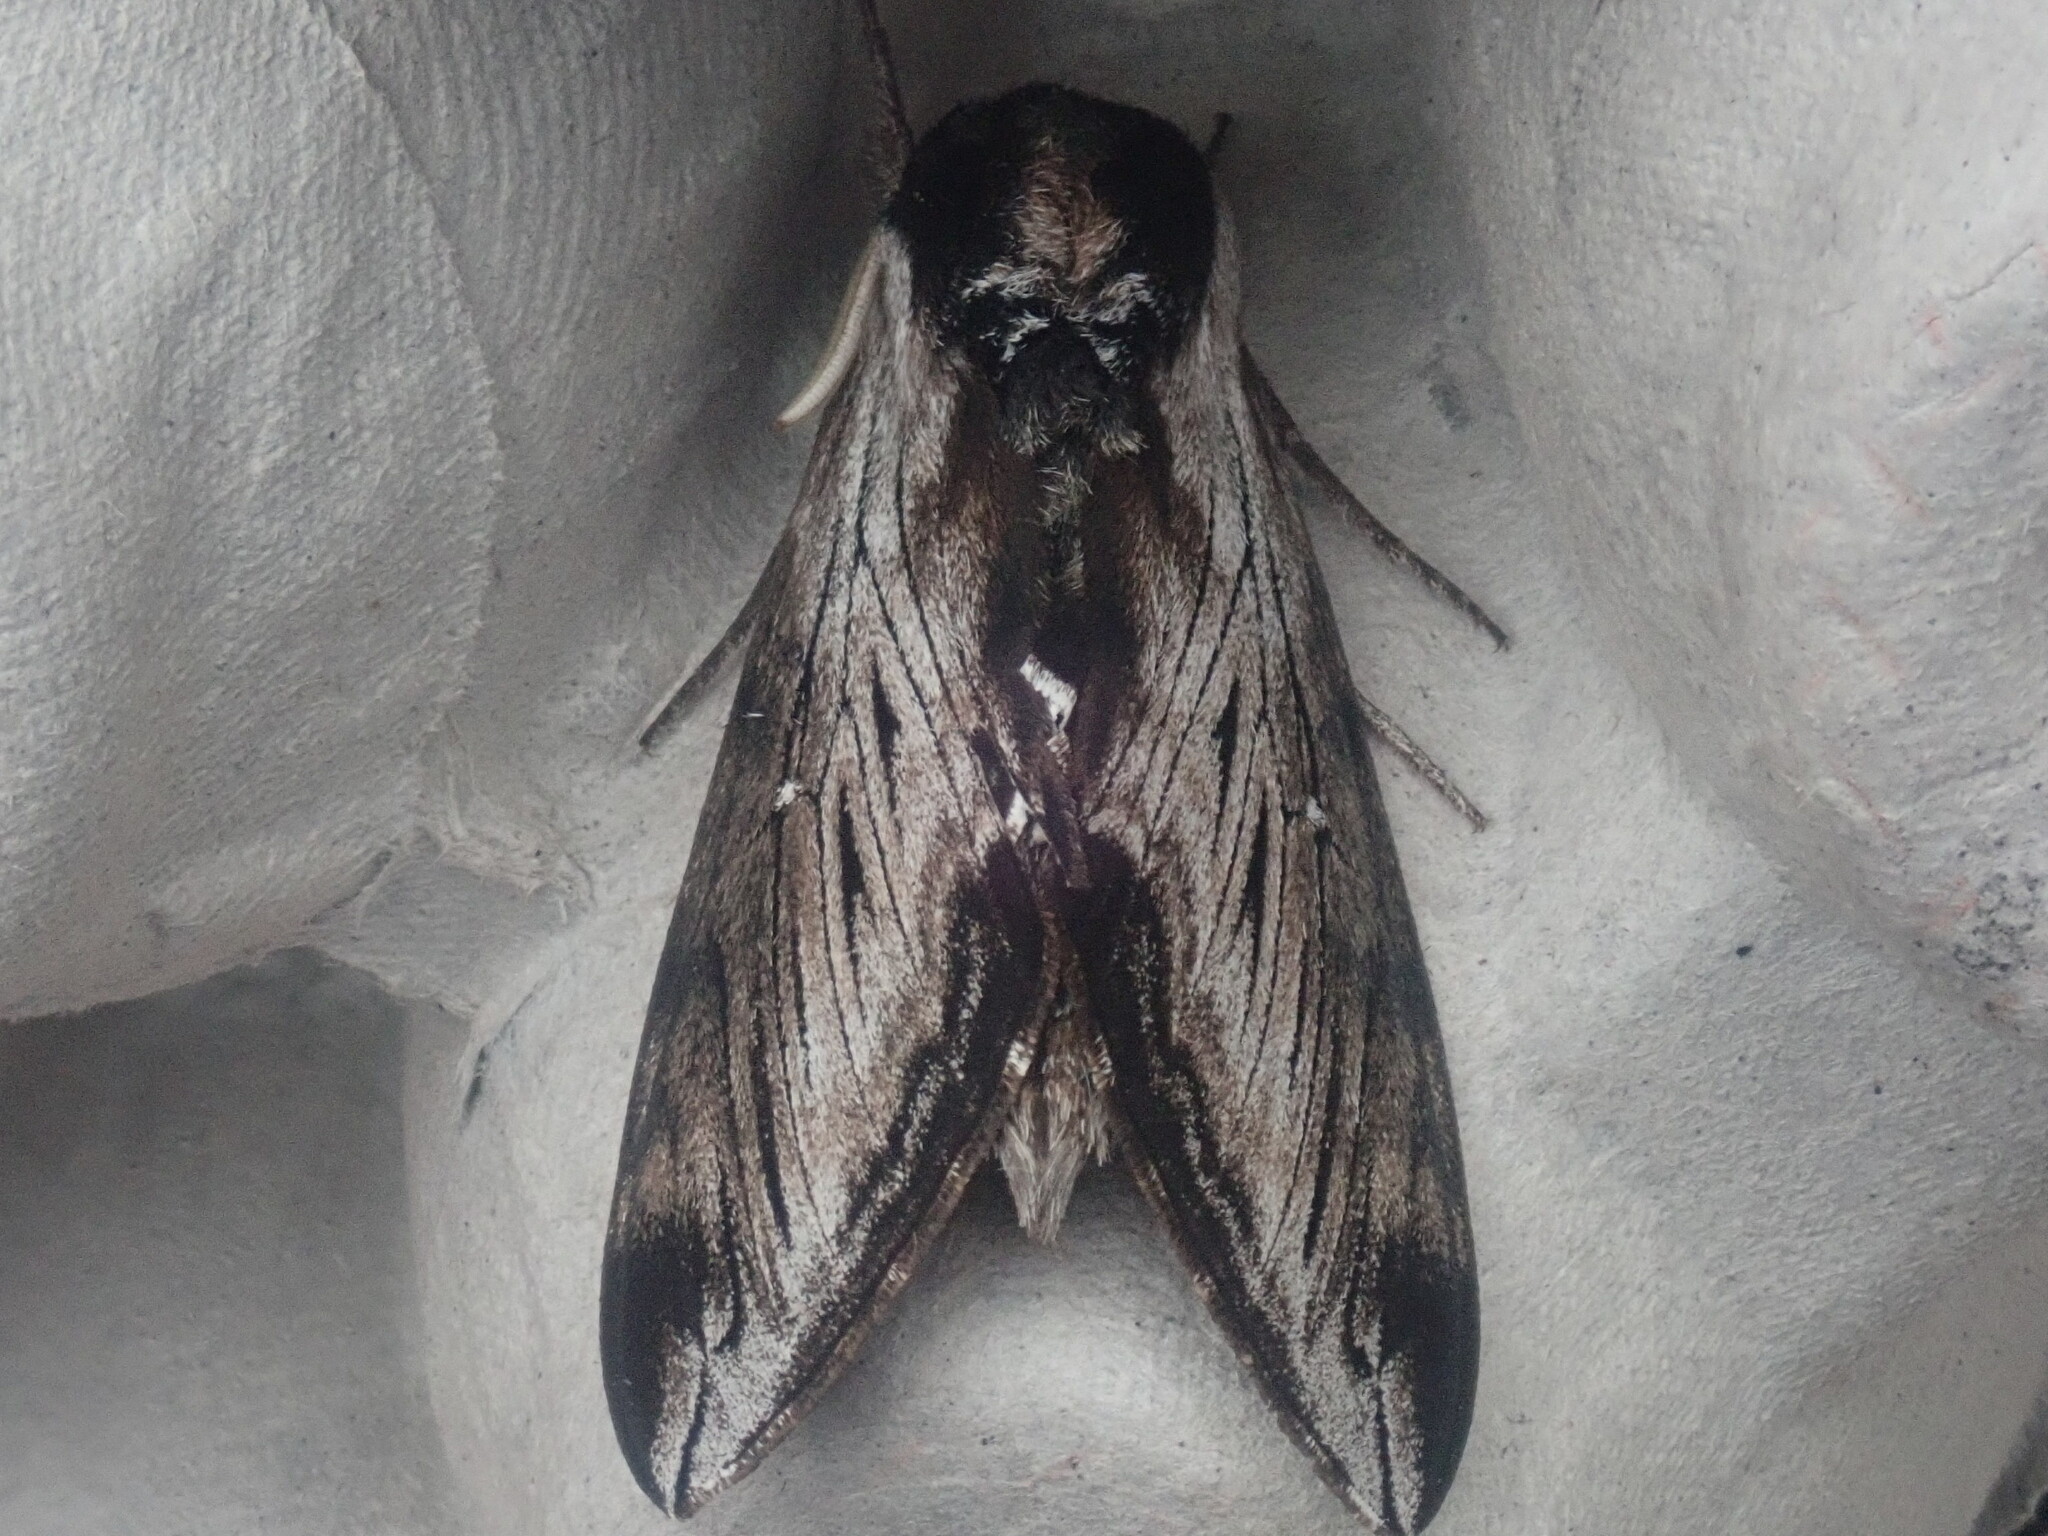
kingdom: Animalia
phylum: Arthropoda
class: Insecta
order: Lepidoptera
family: Sphingidae
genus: Sphinx
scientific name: Sphinx
